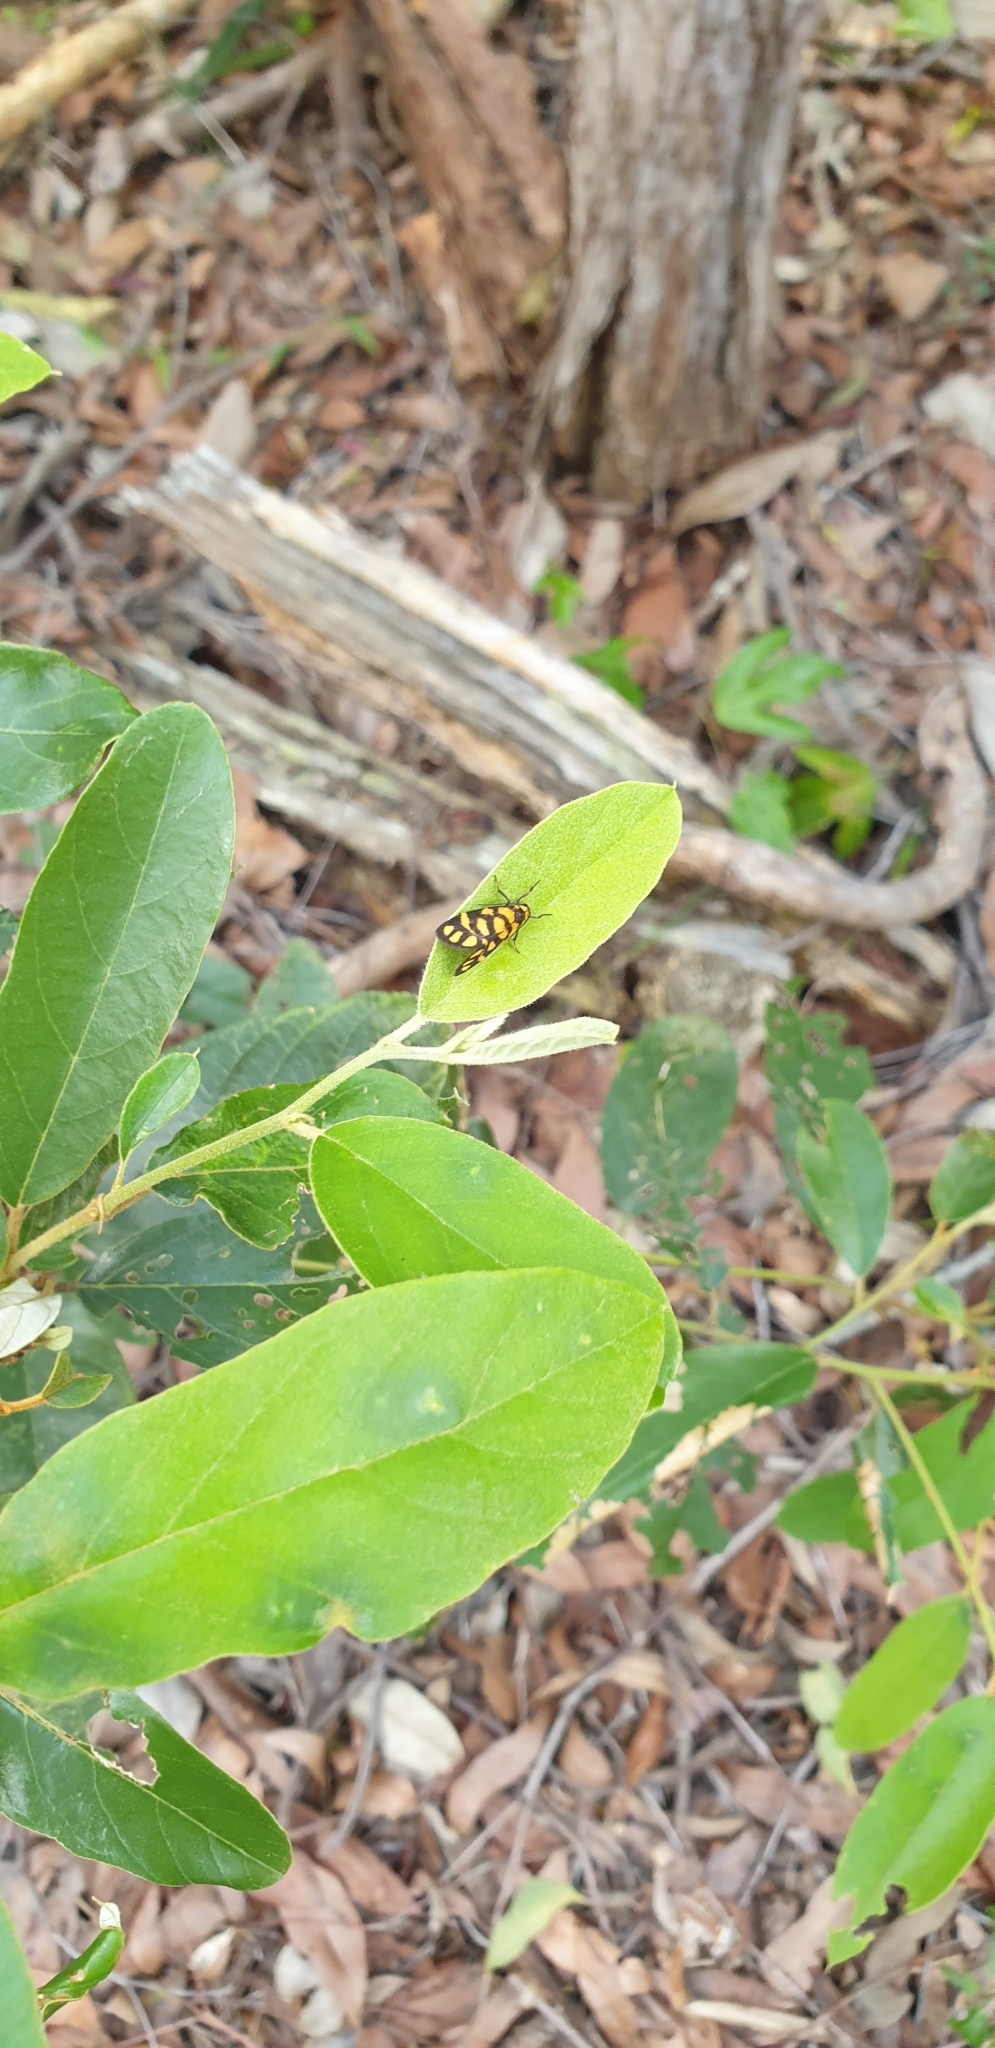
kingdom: Animalia
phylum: Arthropoda
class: Insecta
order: Lepidoptera
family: Erebidae
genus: Asura
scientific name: Asura lydia
